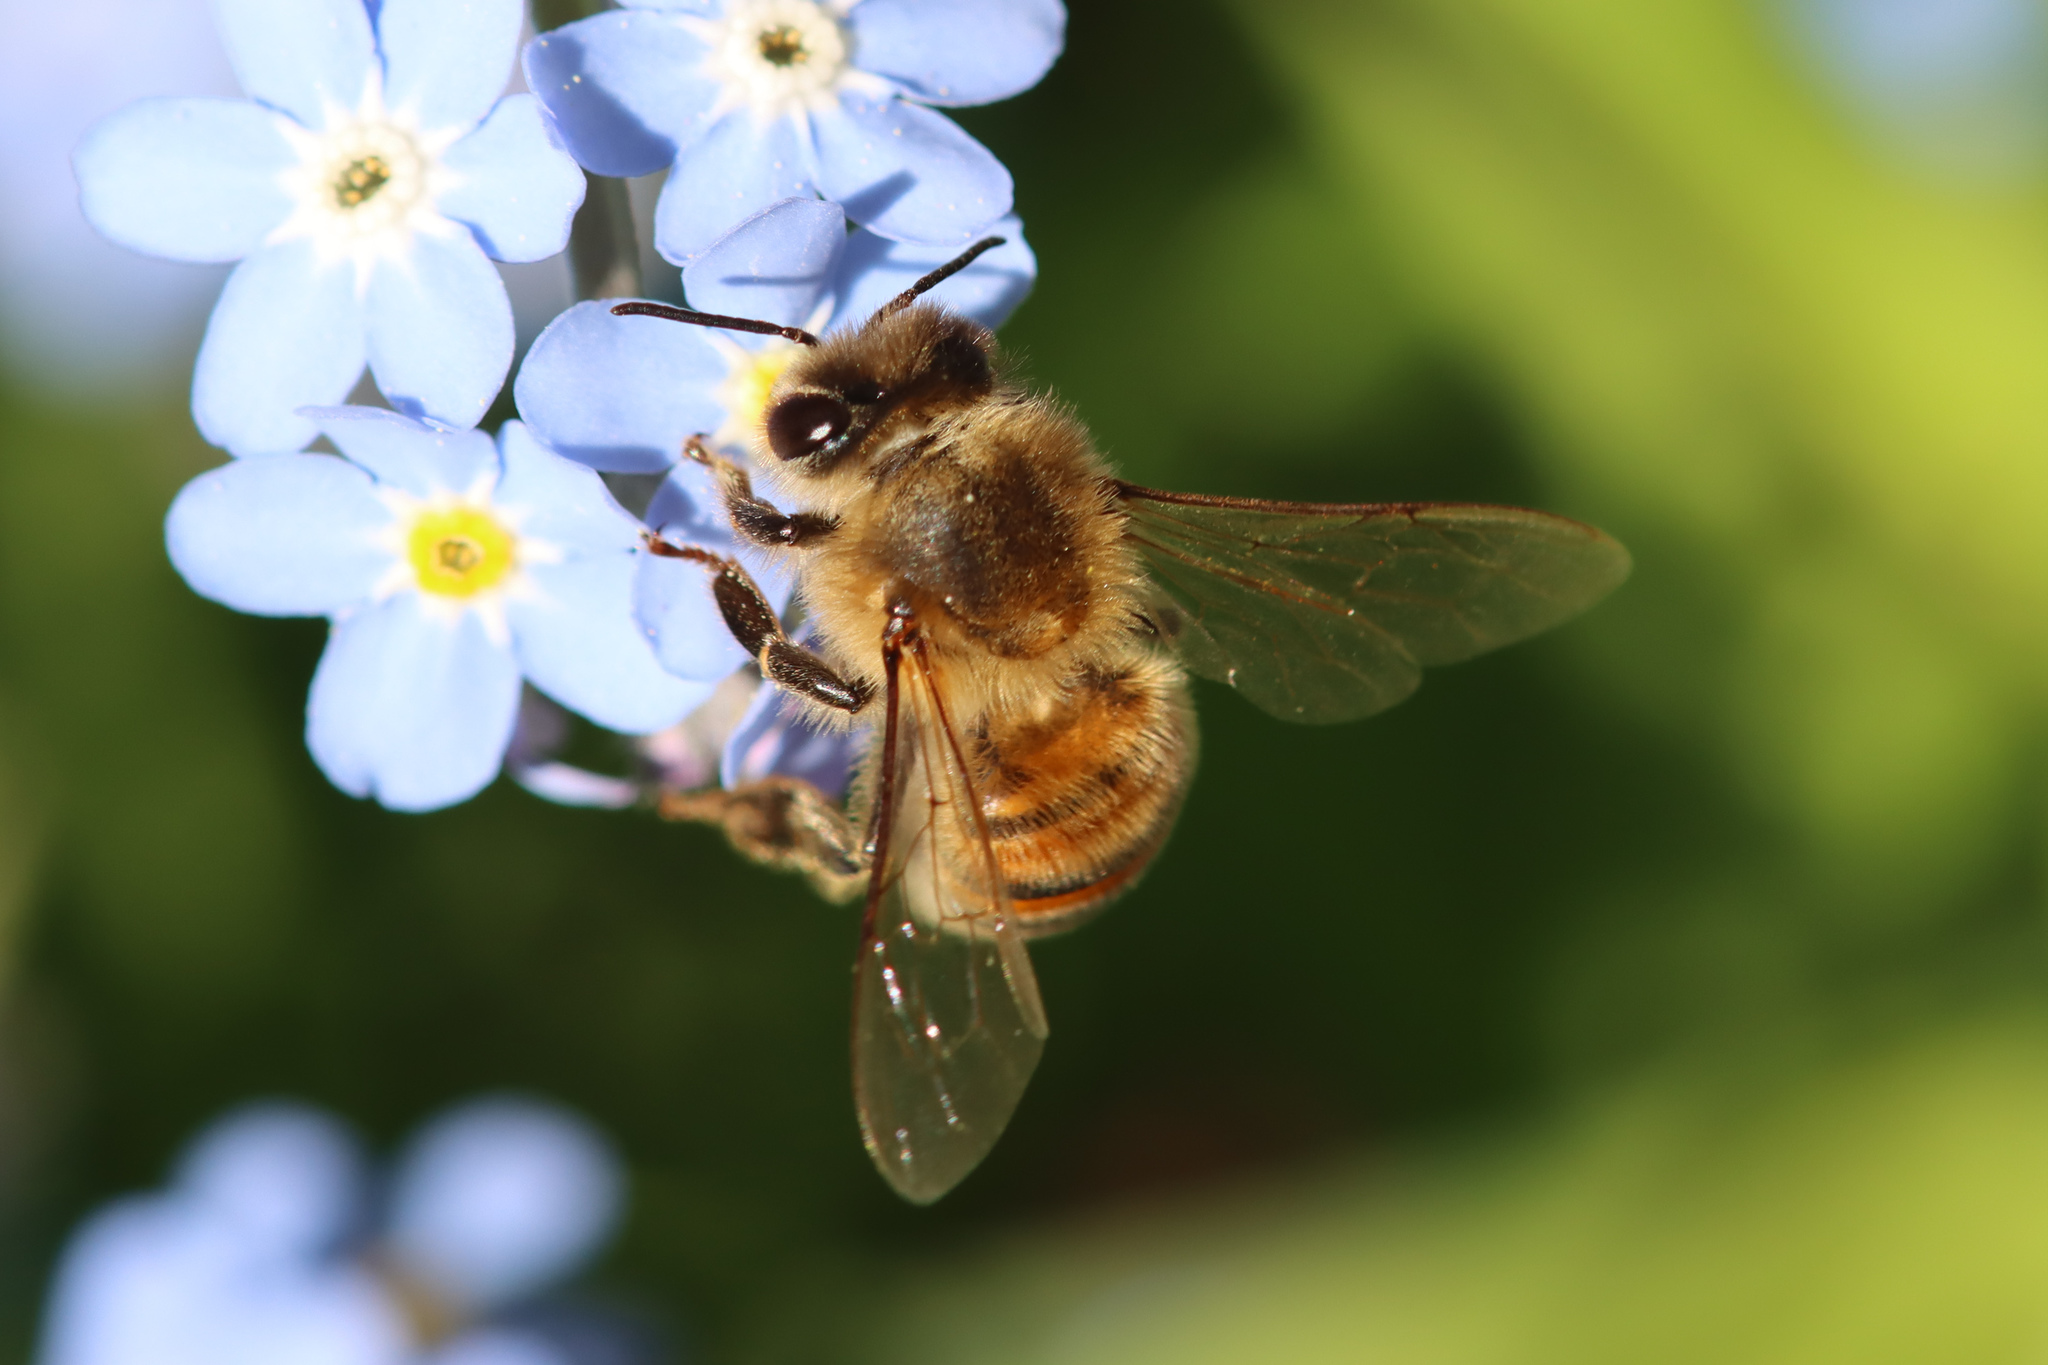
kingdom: Animalia
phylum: Arthropoda
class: Insecta
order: Hymenoptera
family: Apidae
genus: Apis
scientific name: Apis mellifera
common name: Honey bee
